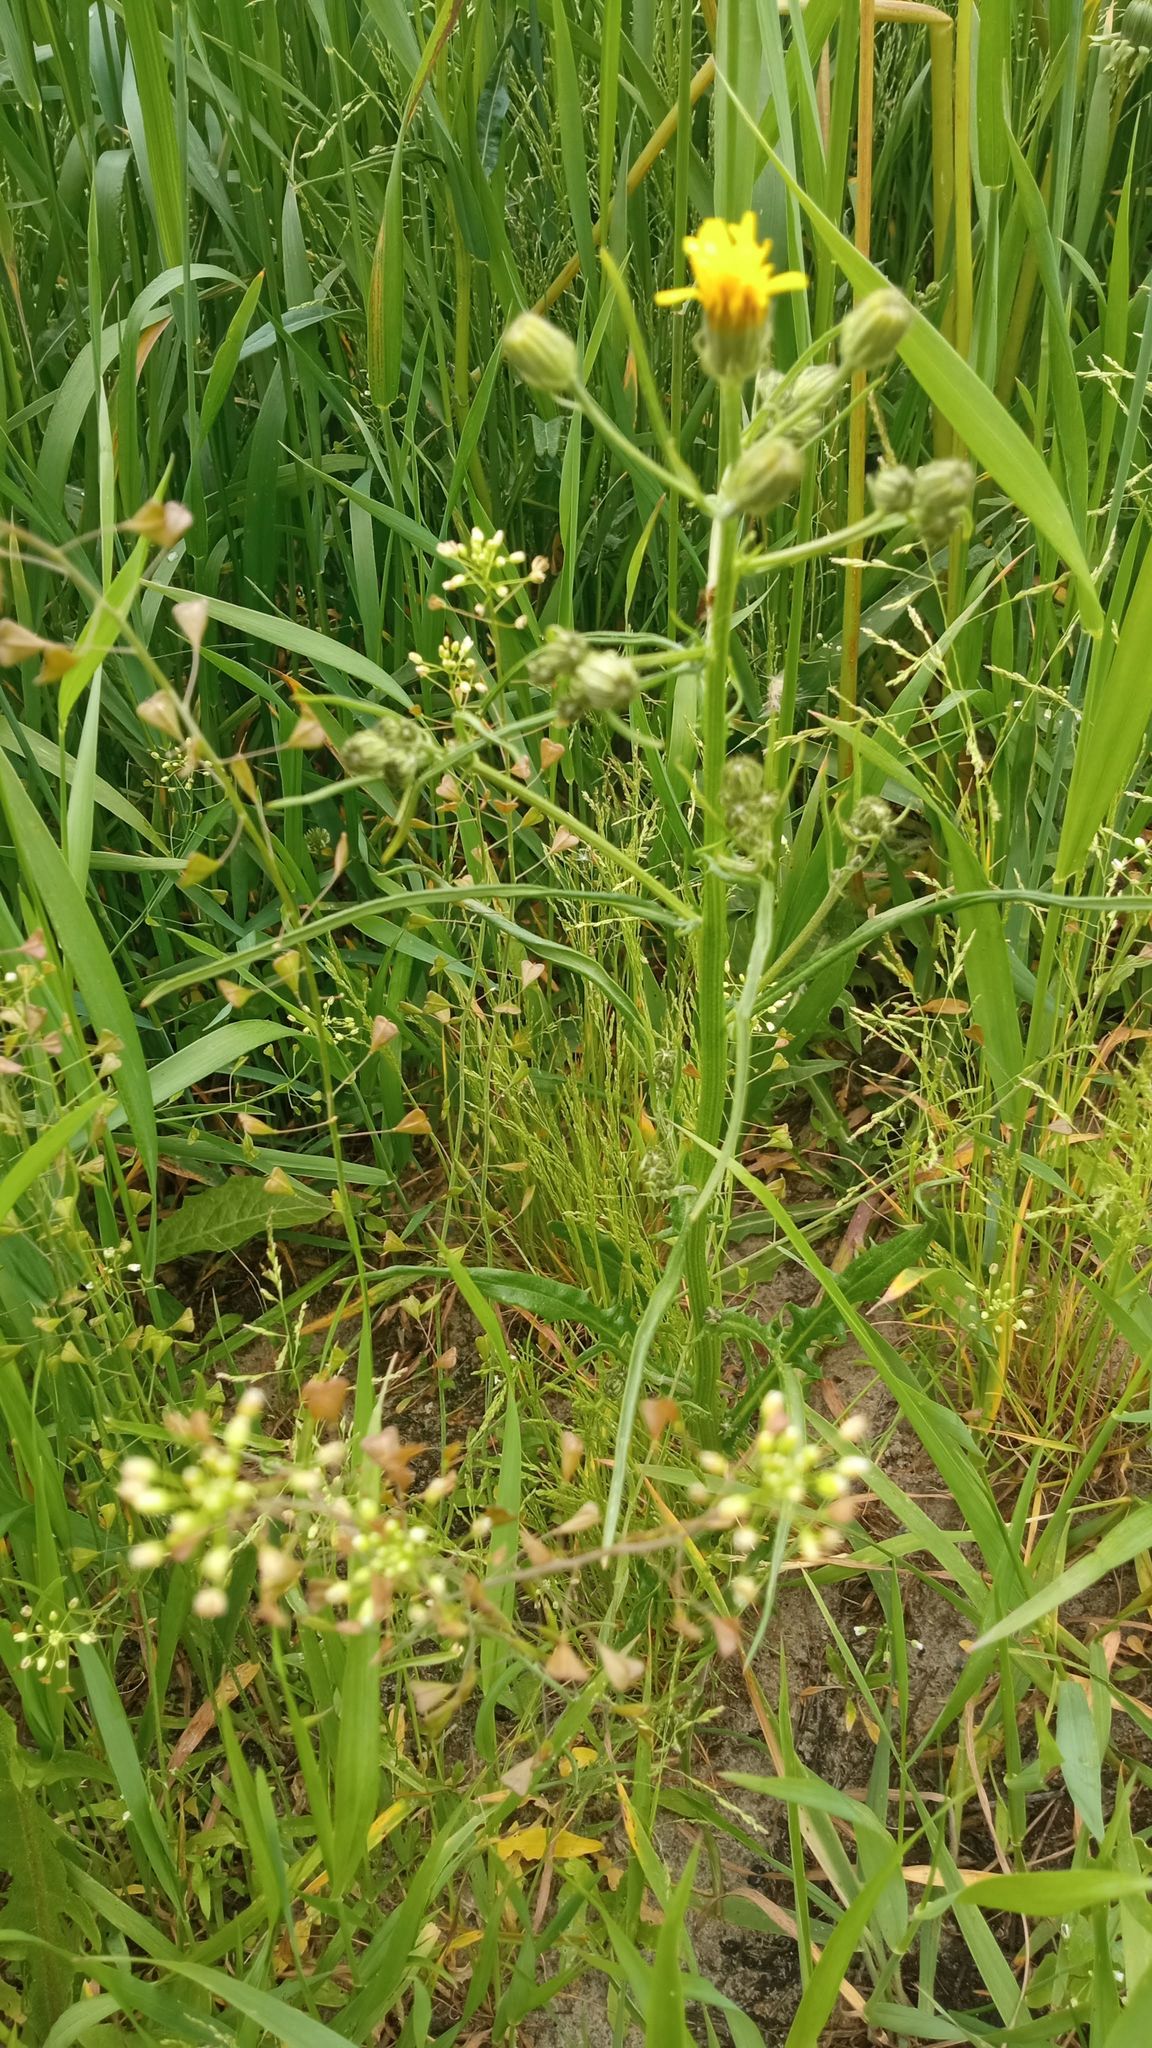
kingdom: Plantae
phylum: Tracheophyta
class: Magnoliopsida
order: Asterales
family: Asteraceae
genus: Crepis
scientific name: Crepis tectorum
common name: Narrow-leaved hawk's-beard
